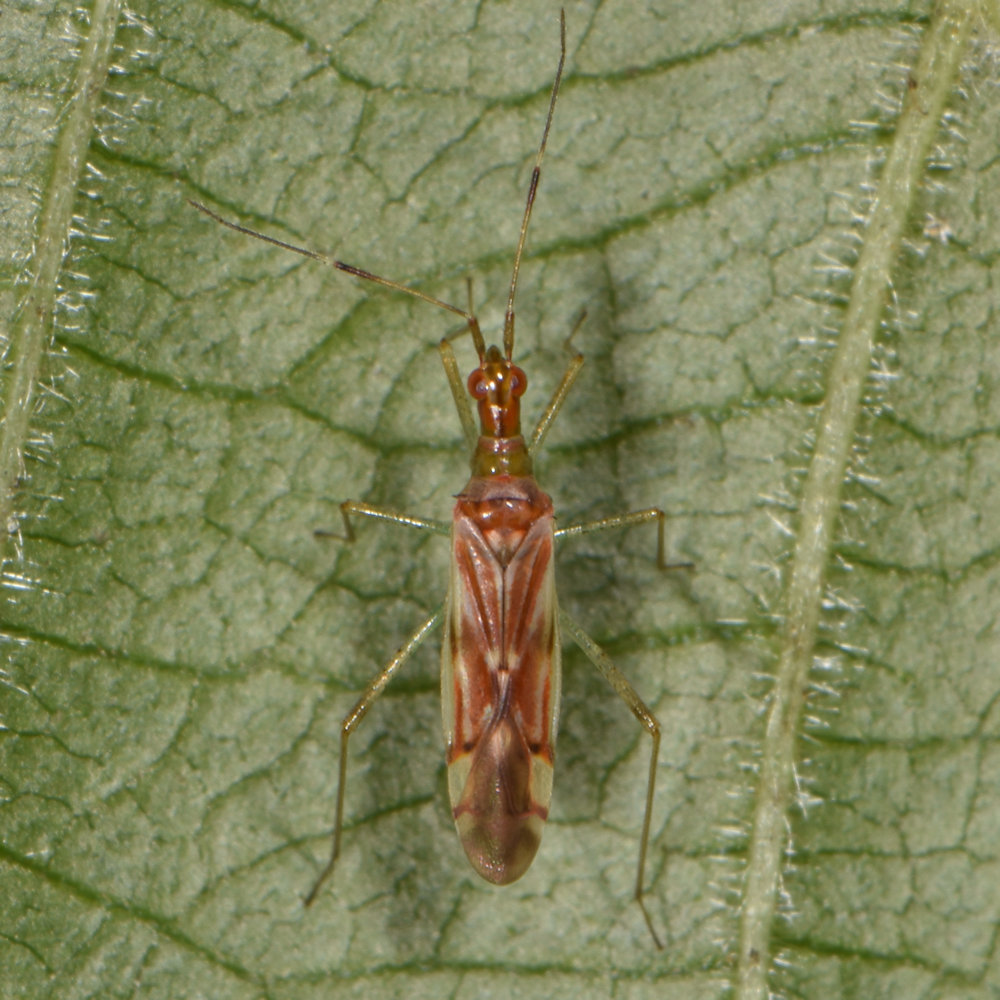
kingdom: Animalia
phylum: Arthropoda
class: Insecta
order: Hemiptera
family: Miridae
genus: Dicyphus
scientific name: Dicyphus famelicus
